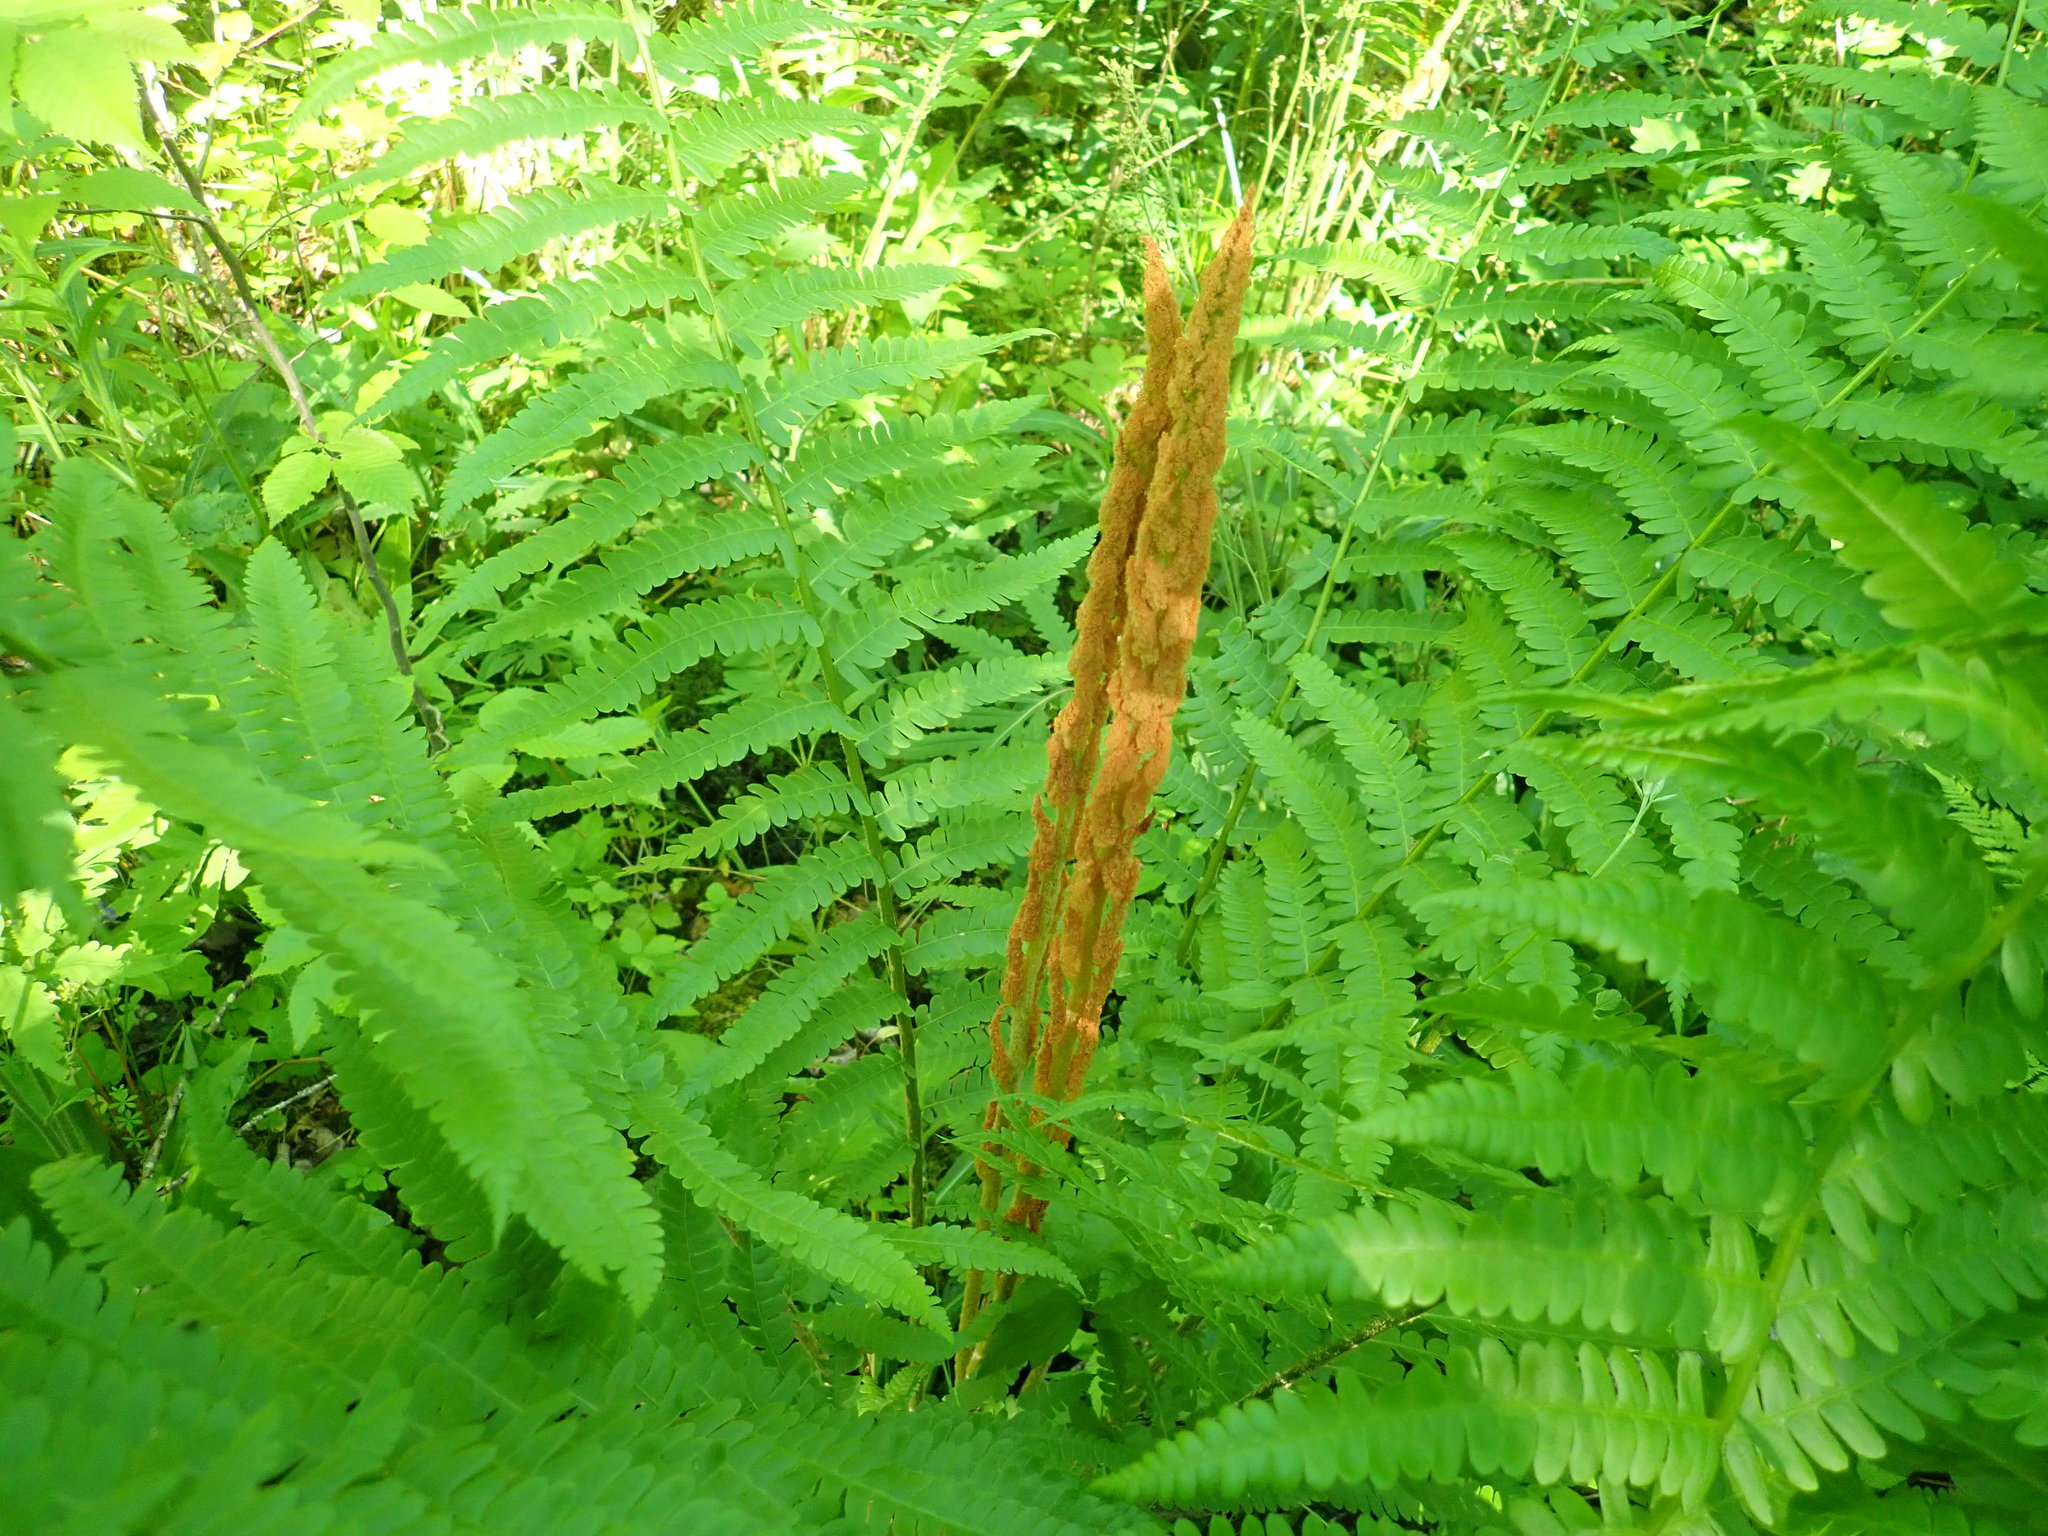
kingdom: Plantae
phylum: Tracheophyta
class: Polypodiopsida
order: Osmundales
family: Osmundaceae
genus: Osmundastrum
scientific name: Osmundastrum cinnamomeum
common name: Cinnamon fern
